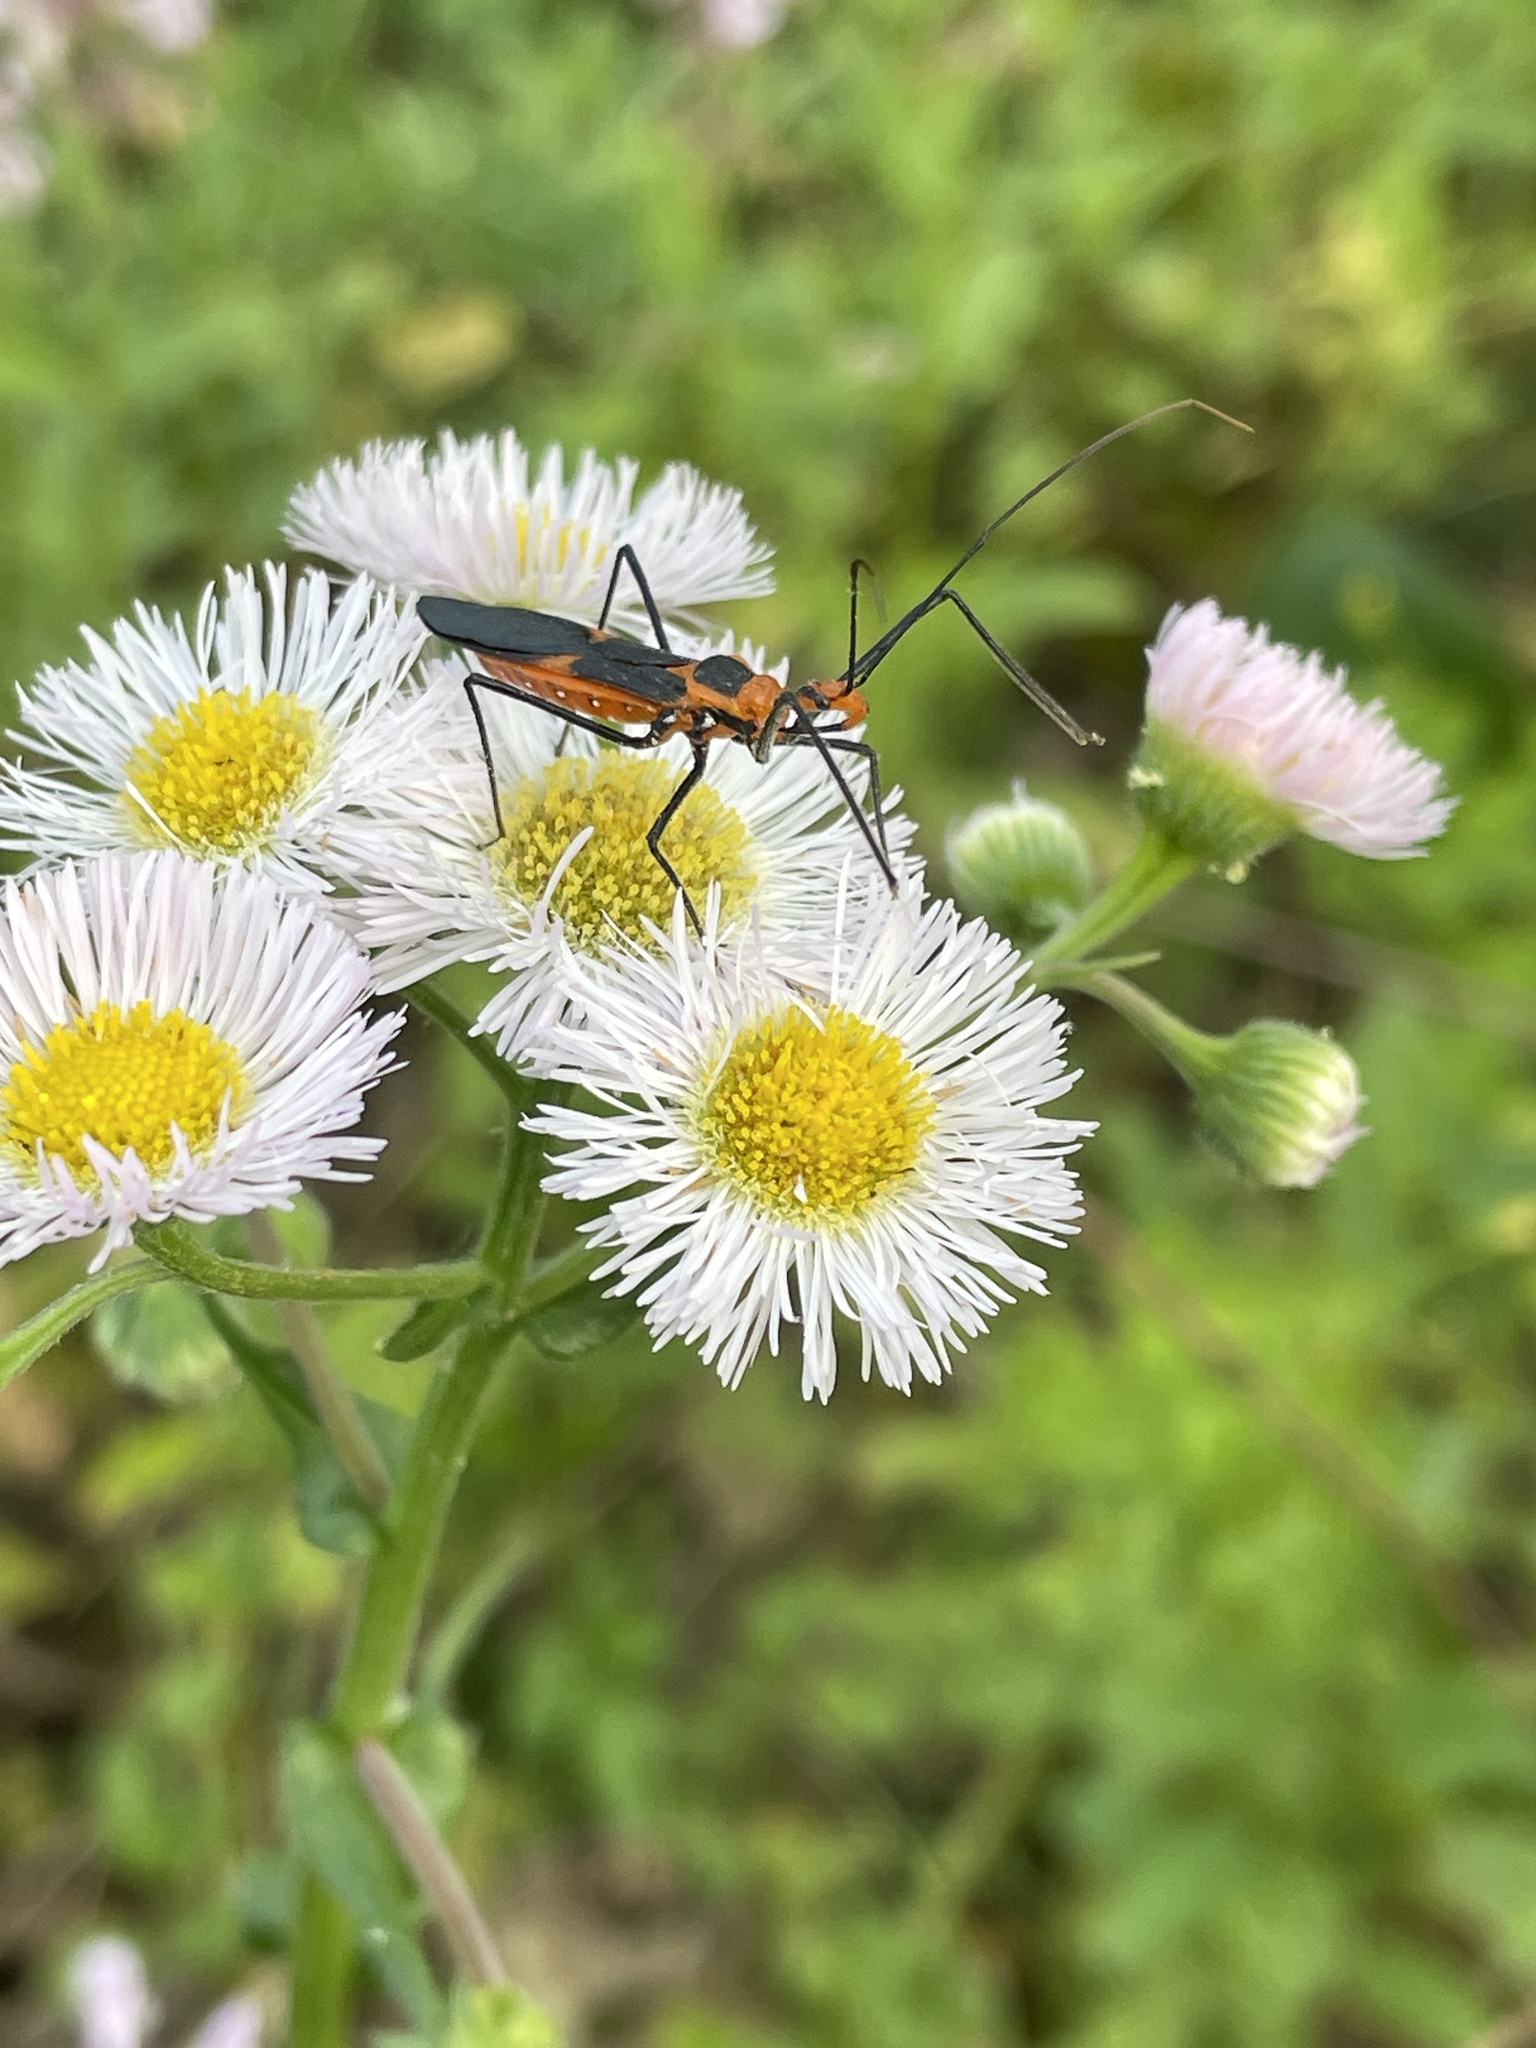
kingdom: Animalia
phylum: Arthropoda
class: Insecta
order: Hemiptera
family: Reduviidae
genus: Zelus
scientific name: Zelus longipes
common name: Milkweed assassin bug
